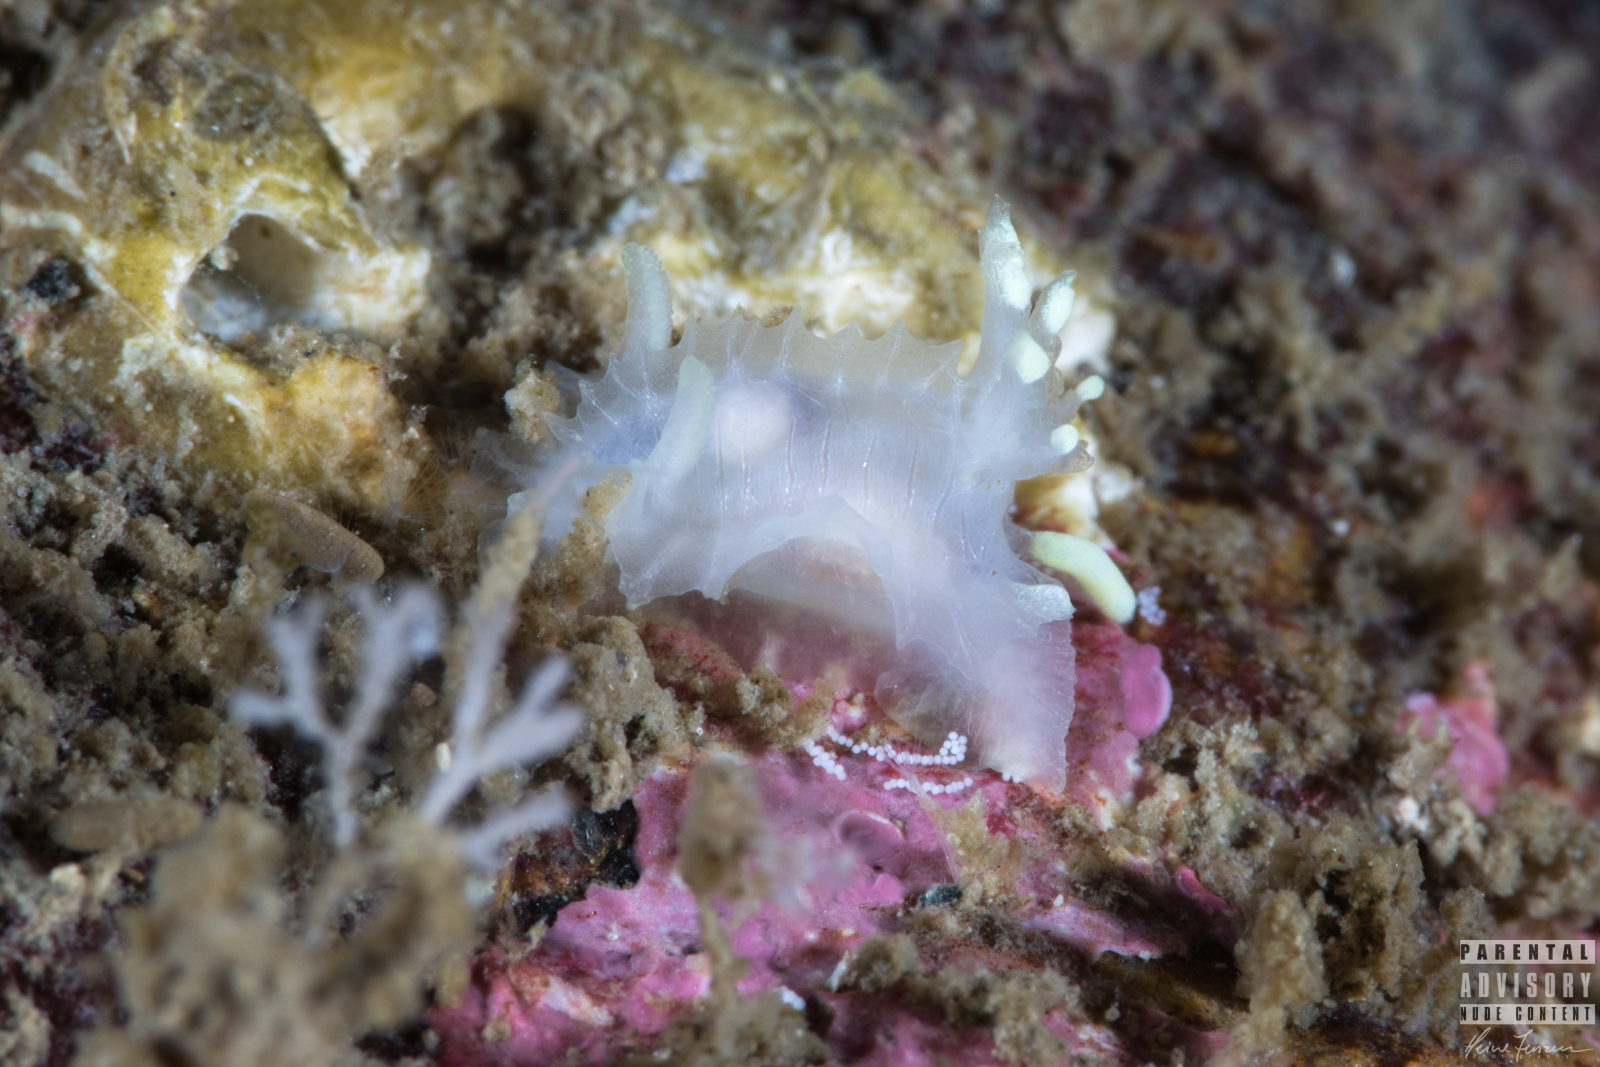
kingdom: Animalia
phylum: Mollusca
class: Gastropoda
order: Nudibranchia
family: Goniodorididae
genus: Lophodoris
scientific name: Lophodoris danielsseni
